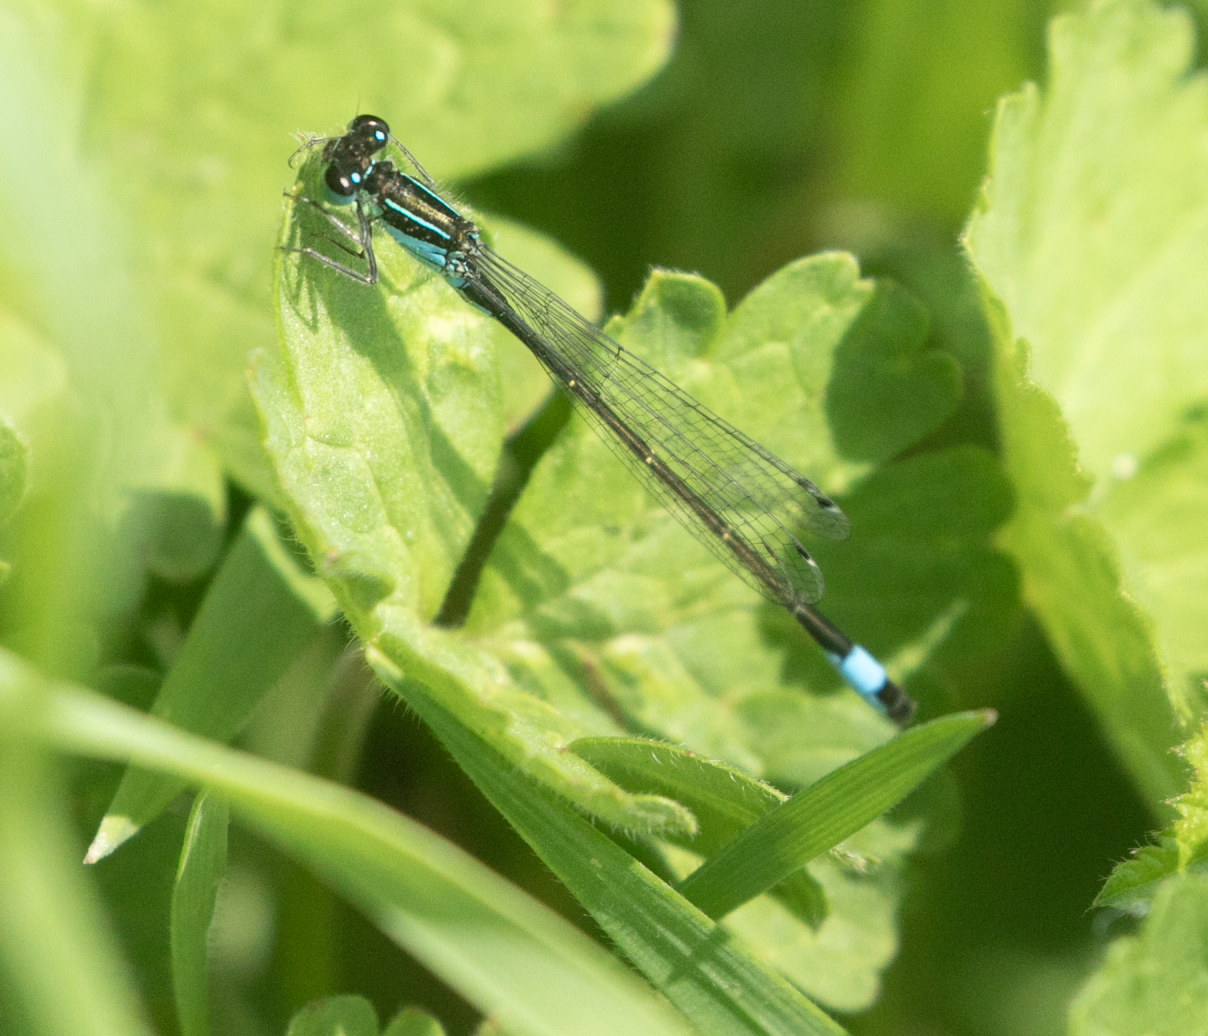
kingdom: Animalia
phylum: Arthropoda
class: Insecta
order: Odonata
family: Coenagrionidae
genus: Ischnura
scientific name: Ischnura elegans
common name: Blue-tailed damselfly
